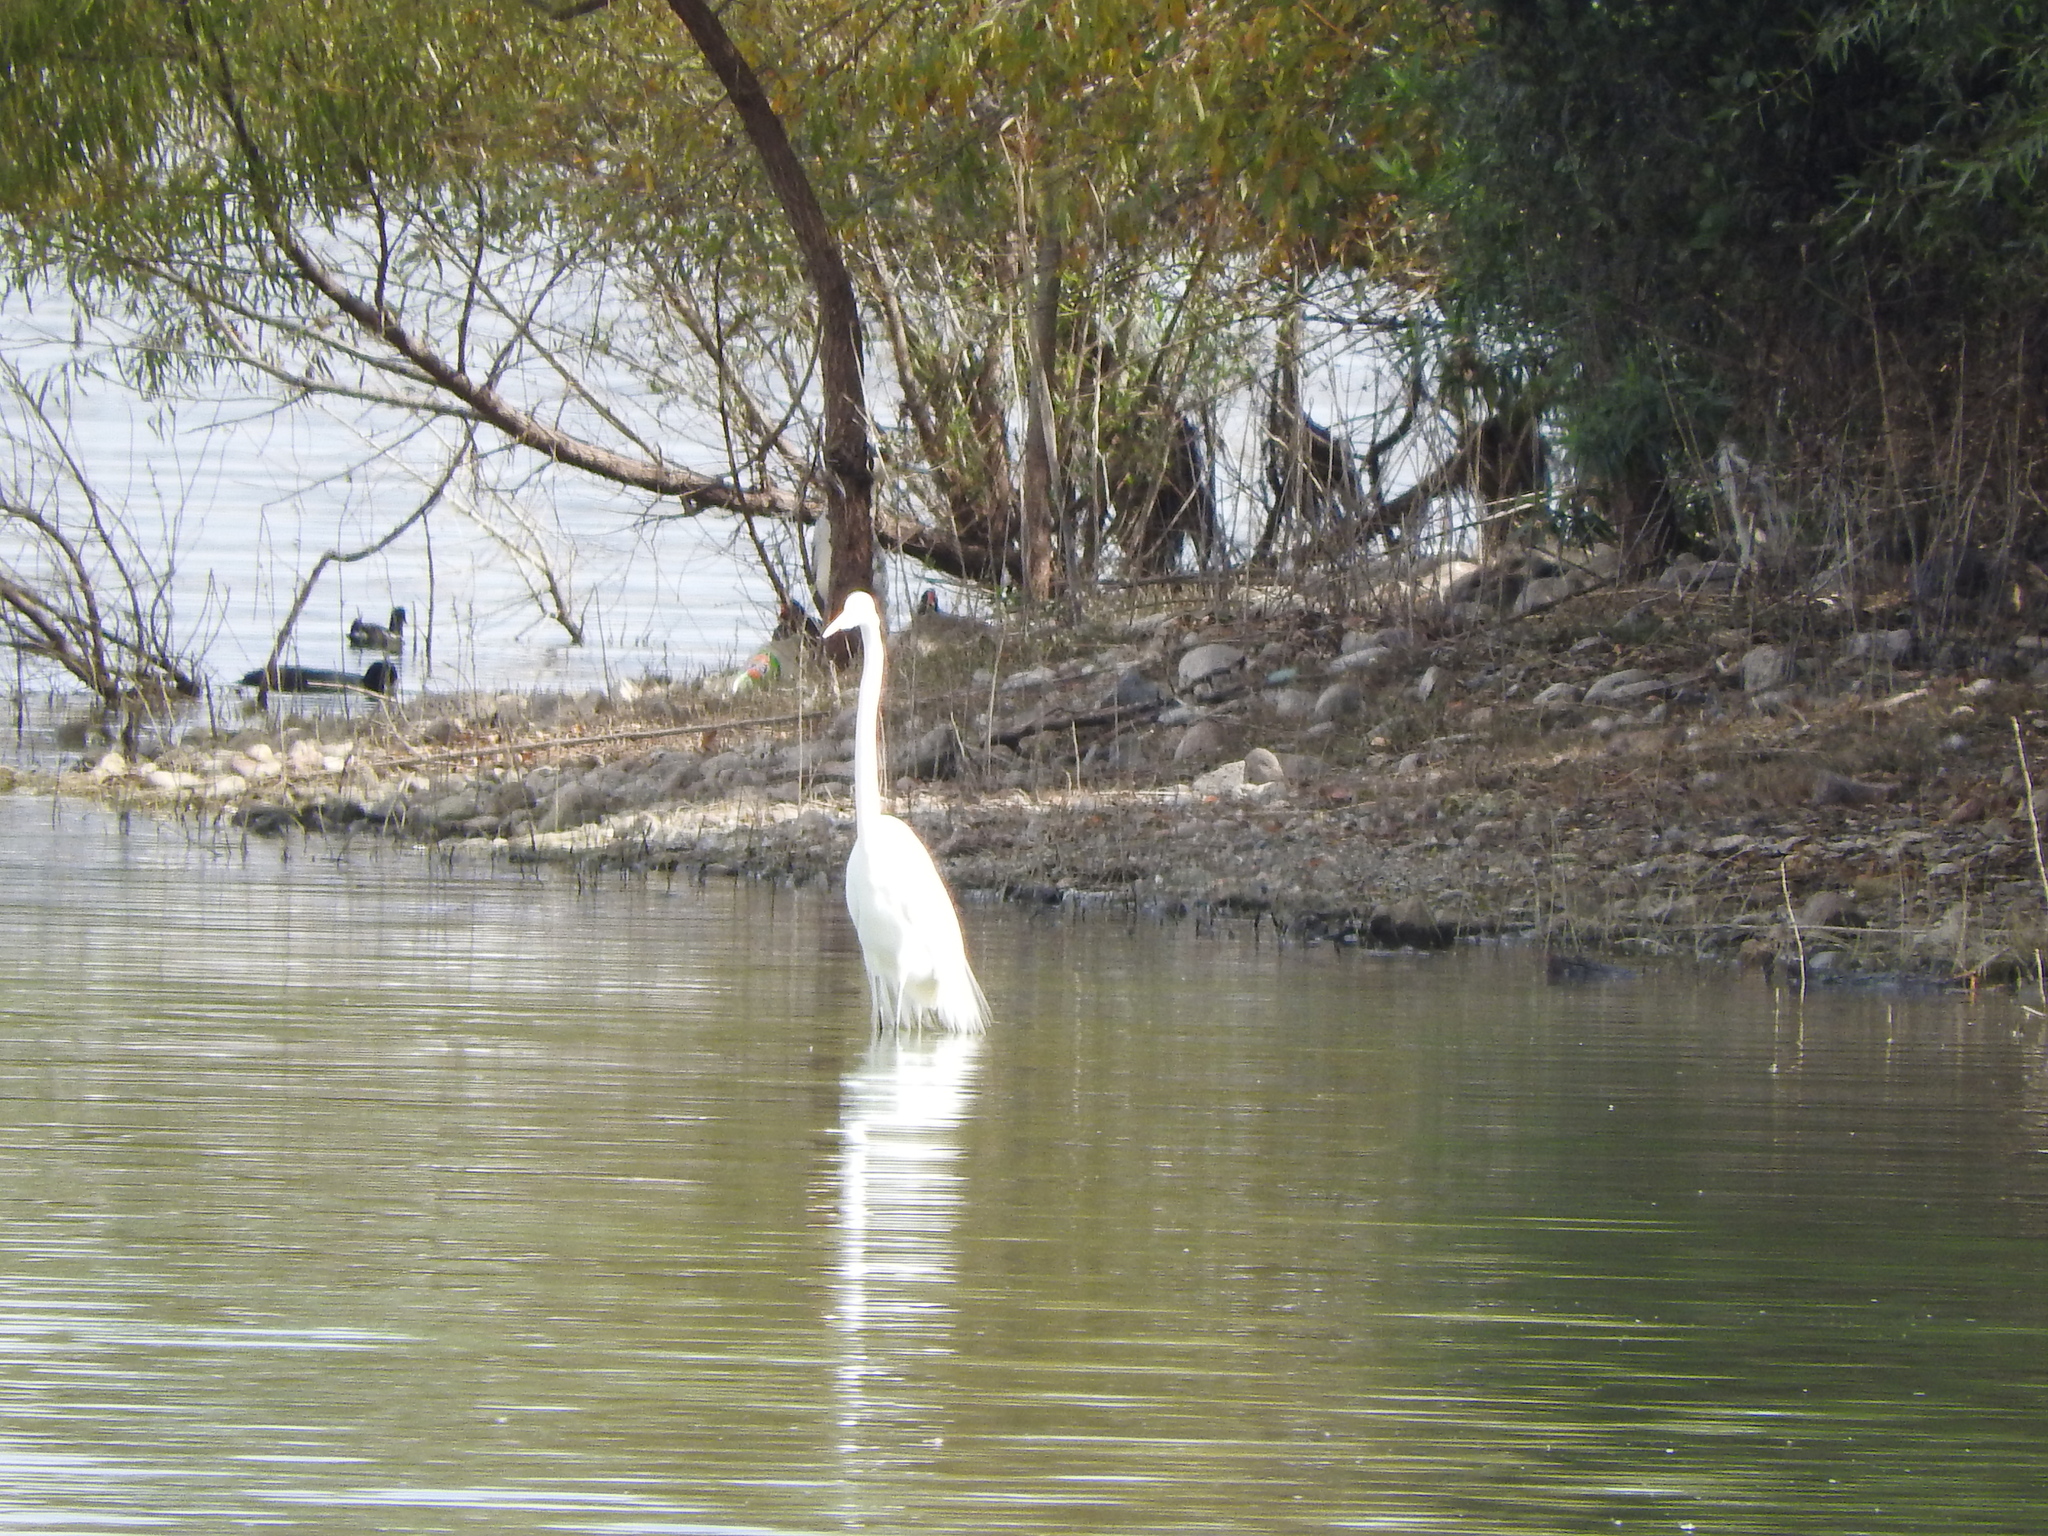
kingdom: Animalia
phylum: Chordata
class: Aves
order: Pelecaniformes
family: Ardeidae
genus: Ardea
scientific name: Ardea alba
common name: Great egret
